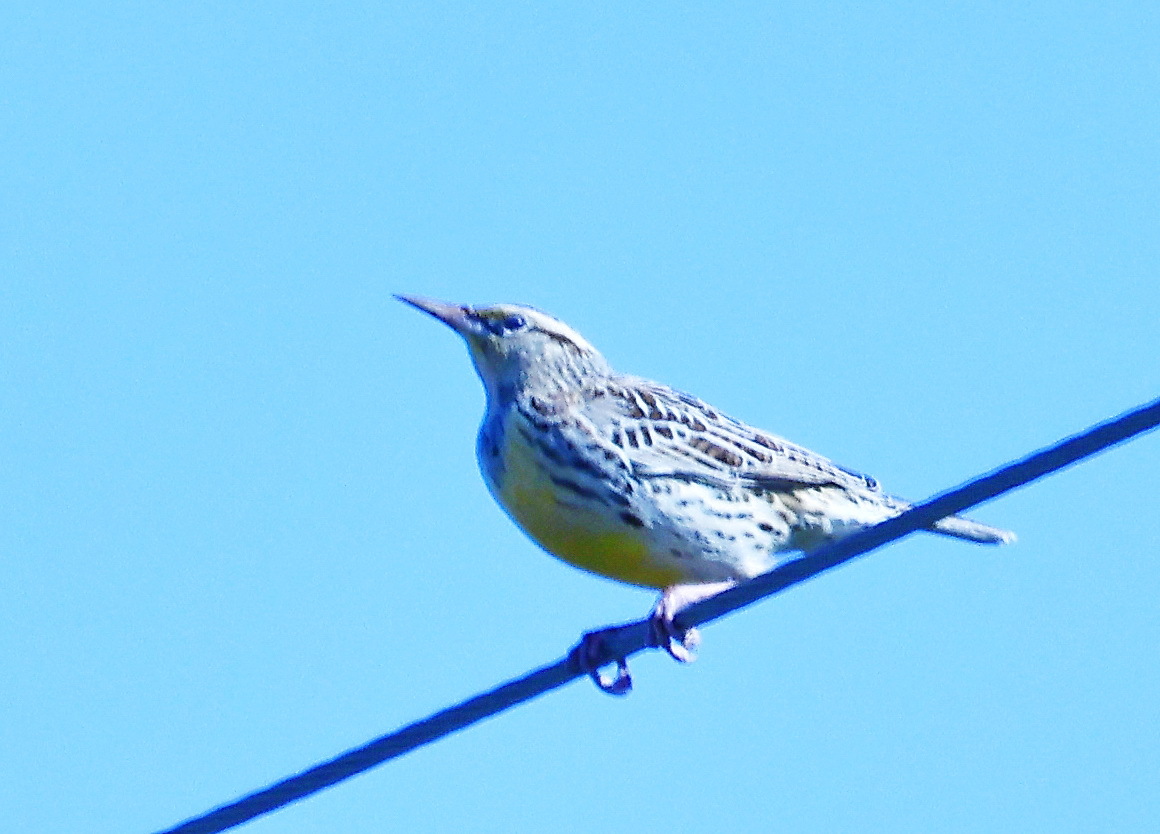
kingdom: Animalia
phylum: Chordata
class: Aves
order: Passeriformes
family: Icteridae
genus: Sturnella
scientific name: Sturnella neglecta
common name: Western meadowlark
